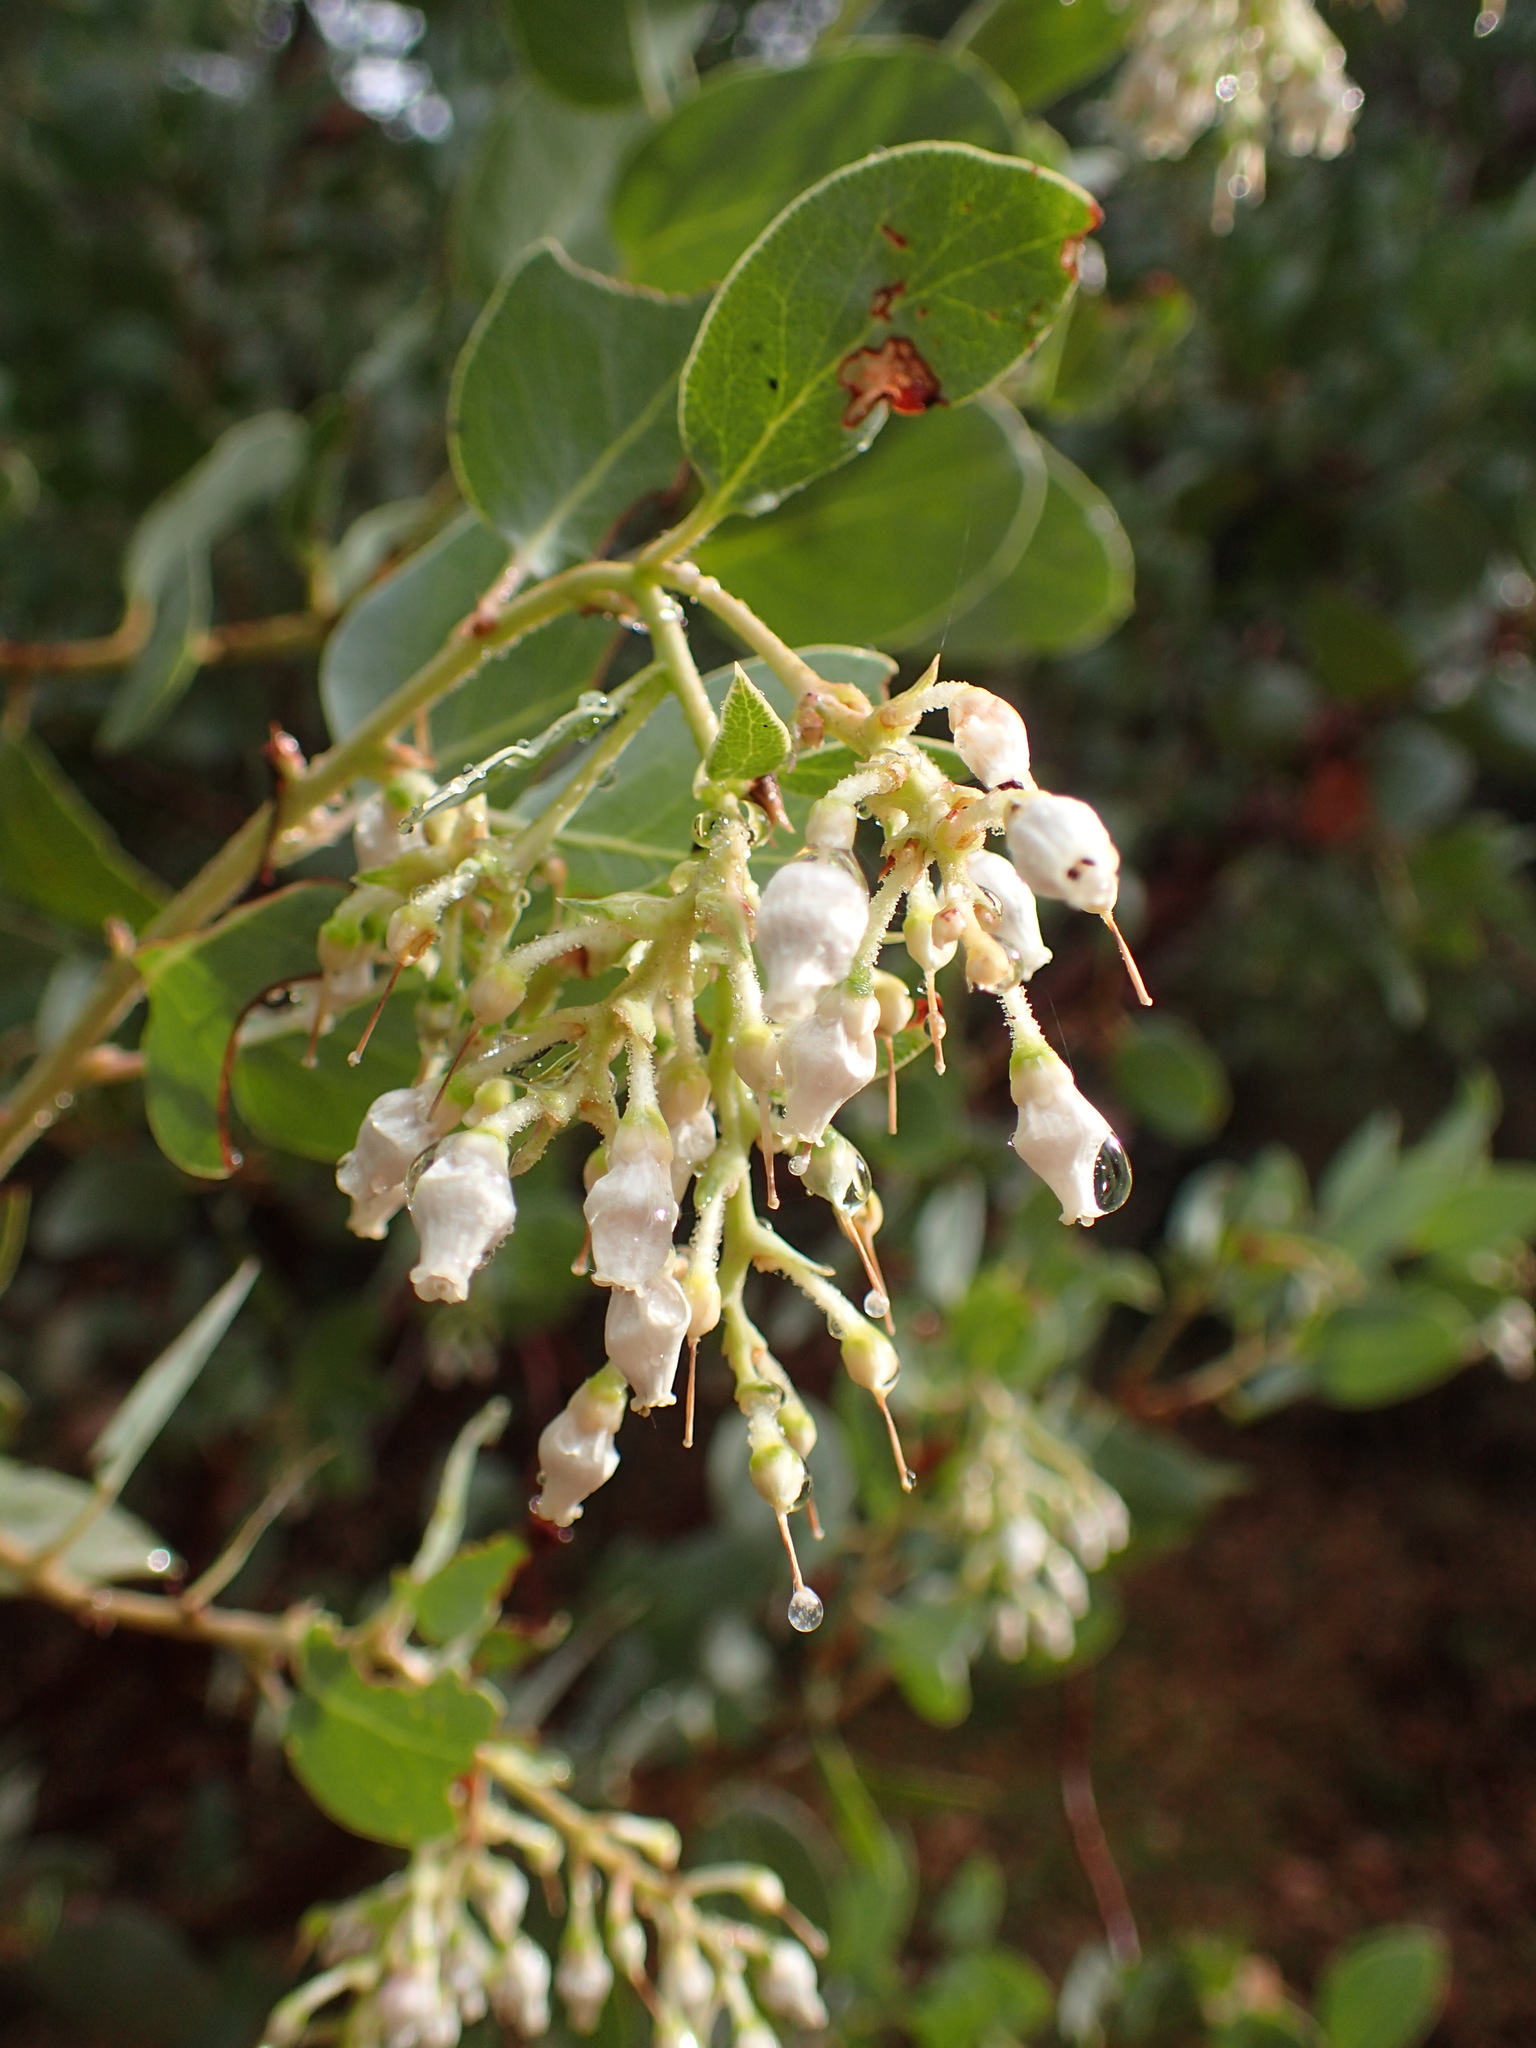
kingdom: Plantae
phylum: Tracheophyta
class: Magnoliopsida
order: Ericales
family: Ericaceae
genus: Arctostaphylos
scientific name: Arctostaphylos glauca
